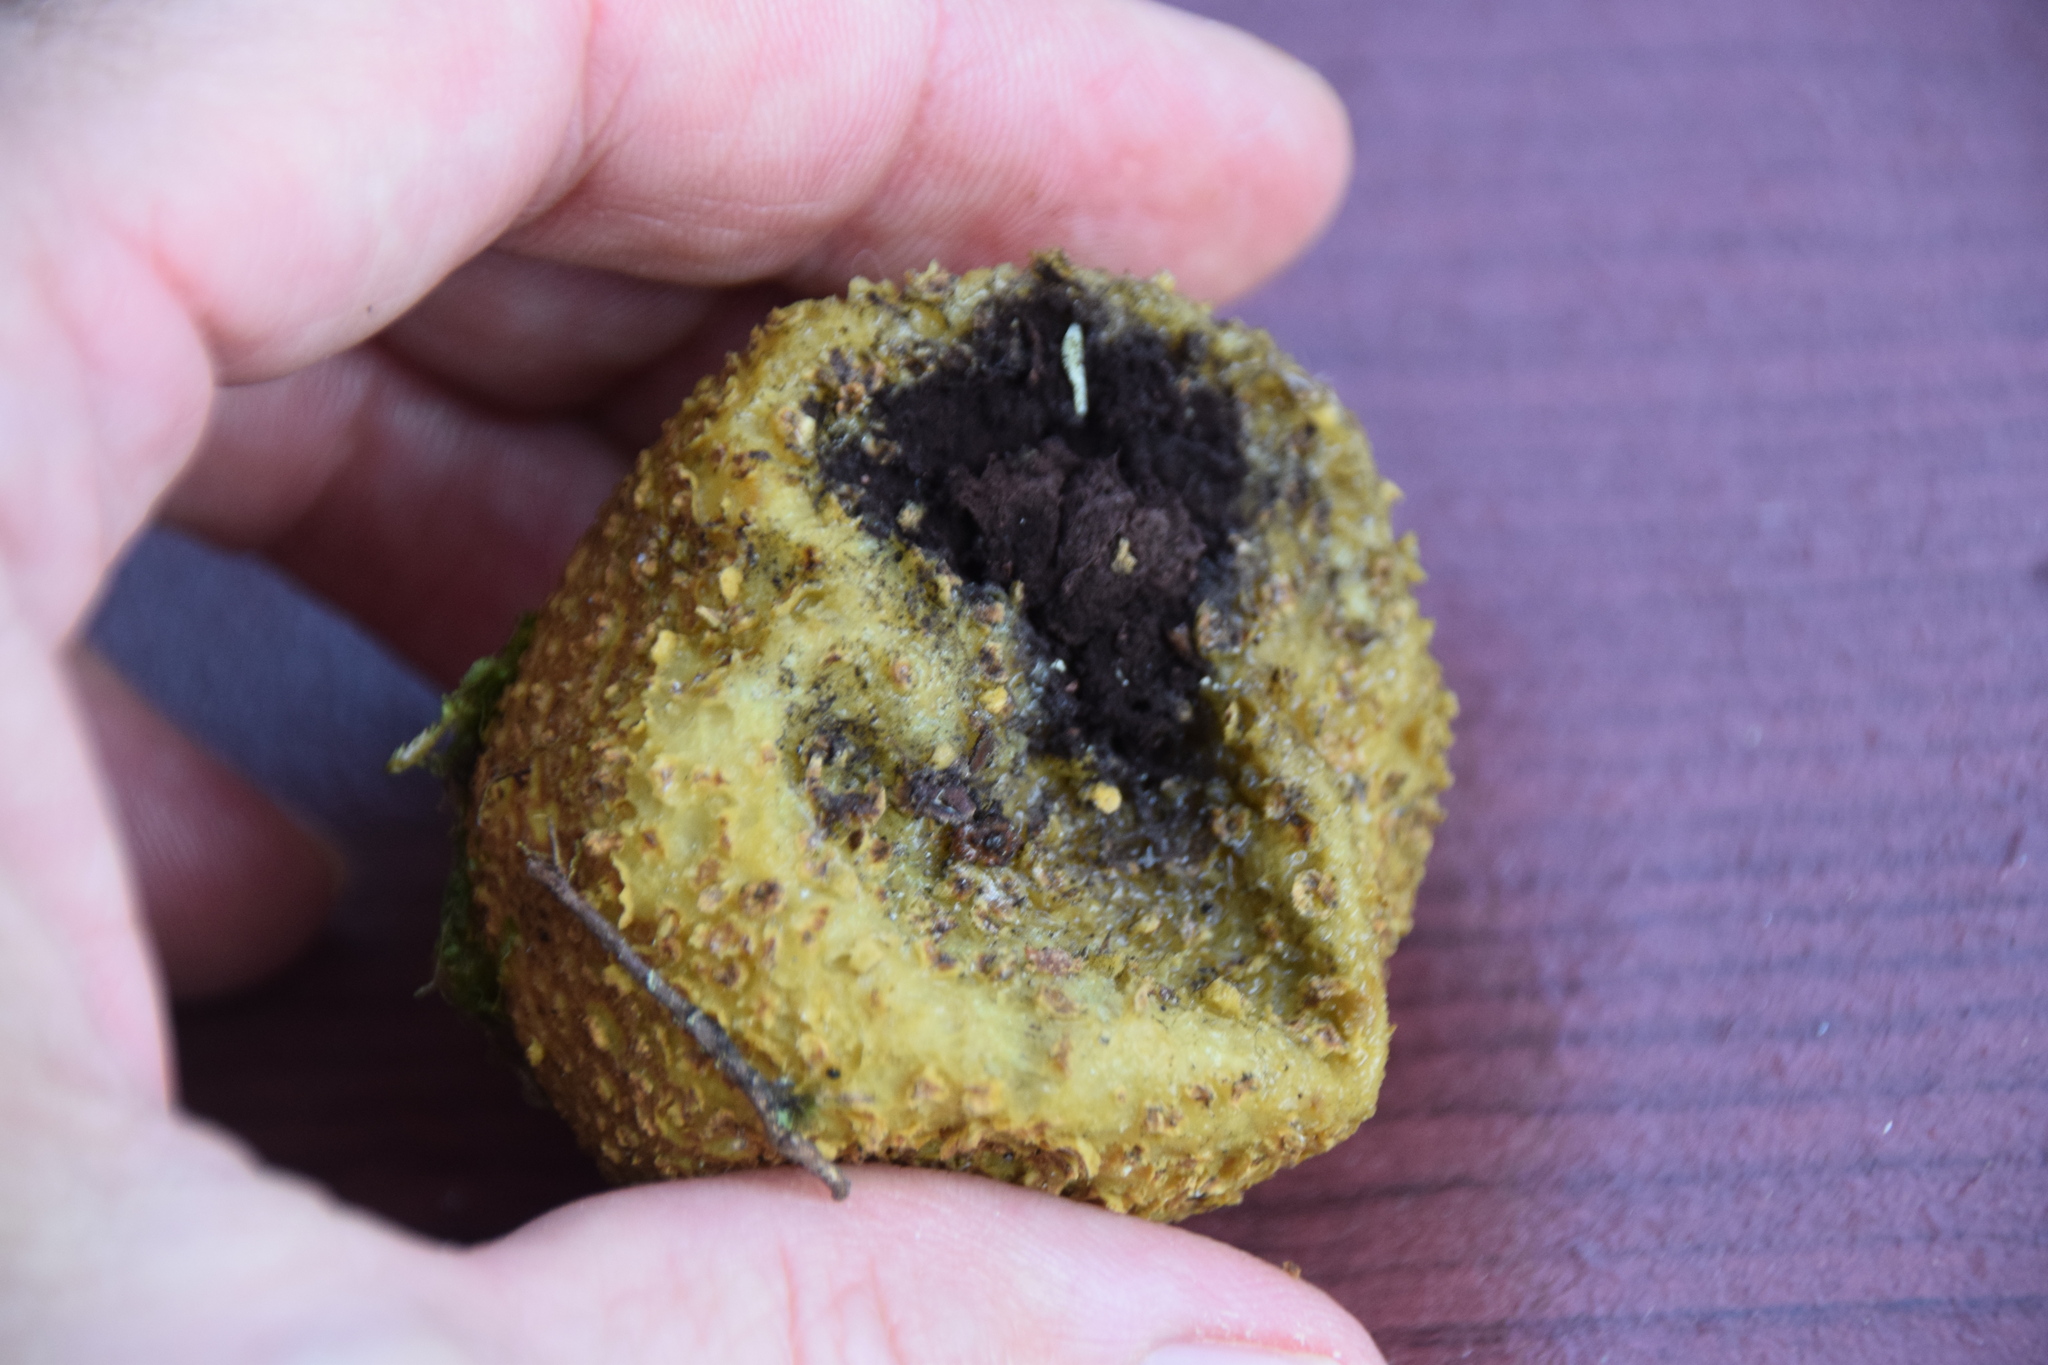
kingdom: Fungi
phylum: Basidiomycota
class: Agaricomycetes
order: Boletales
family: Sclerodermataceae
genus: Scleroderma
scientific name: Scleroderma citrinum
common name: Common earthball
